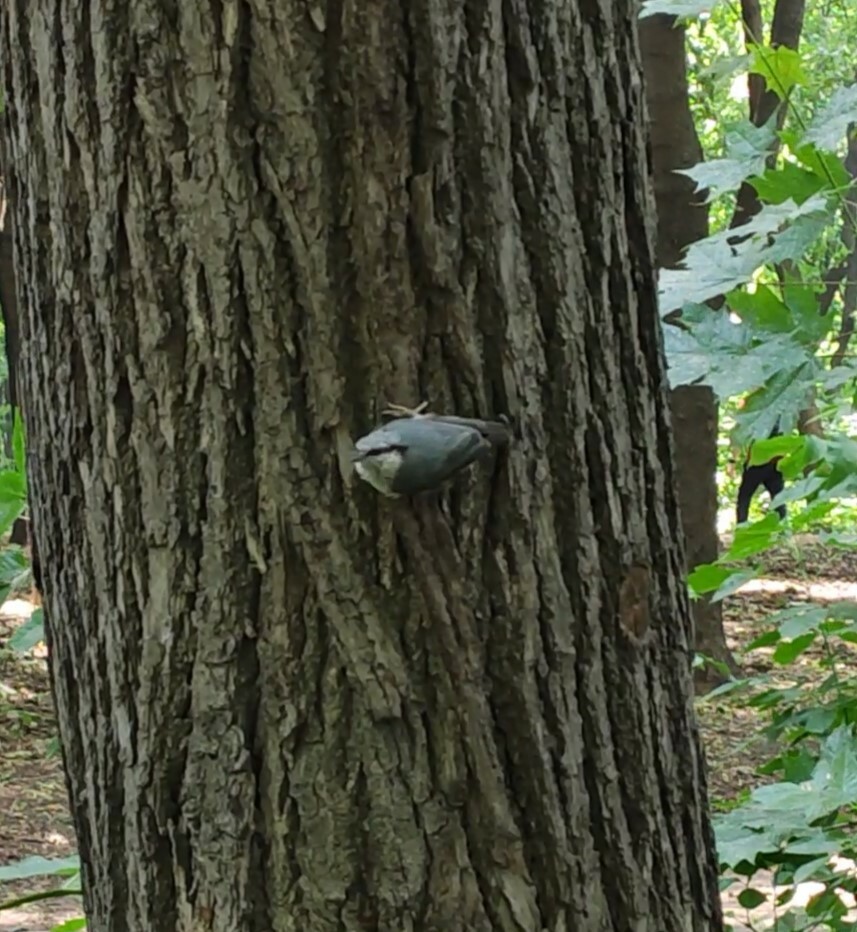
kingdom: Animalia
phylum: Chordata
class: Aves
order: Passeriformes
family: Sittidae
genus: Sitta
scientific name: Sitta europaea
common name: Eurasian nuthatch
